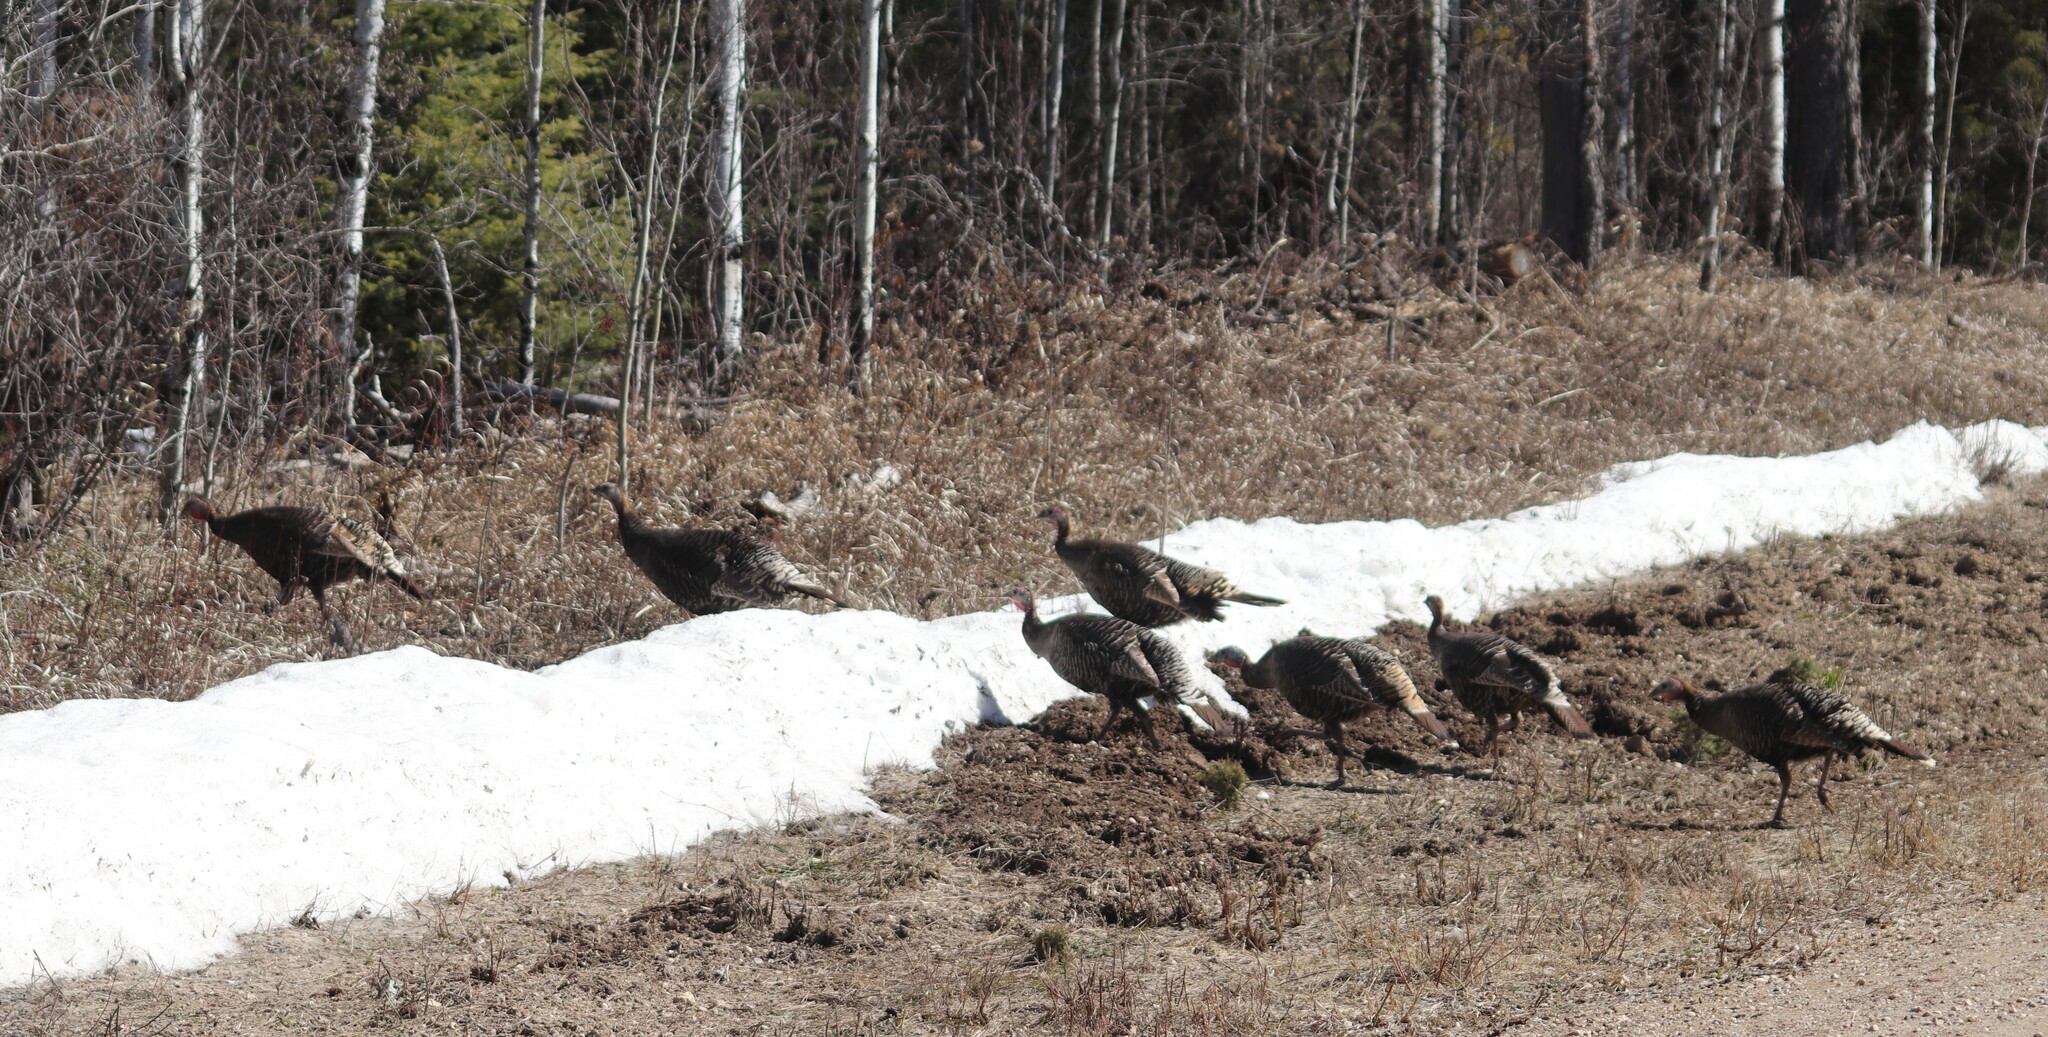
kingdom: Animalia
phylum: Chordata
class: Aves
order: Galliformes
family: Phasianidae
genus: Meleagris
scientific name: Meleagris gallopavo
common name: Wild turkey
